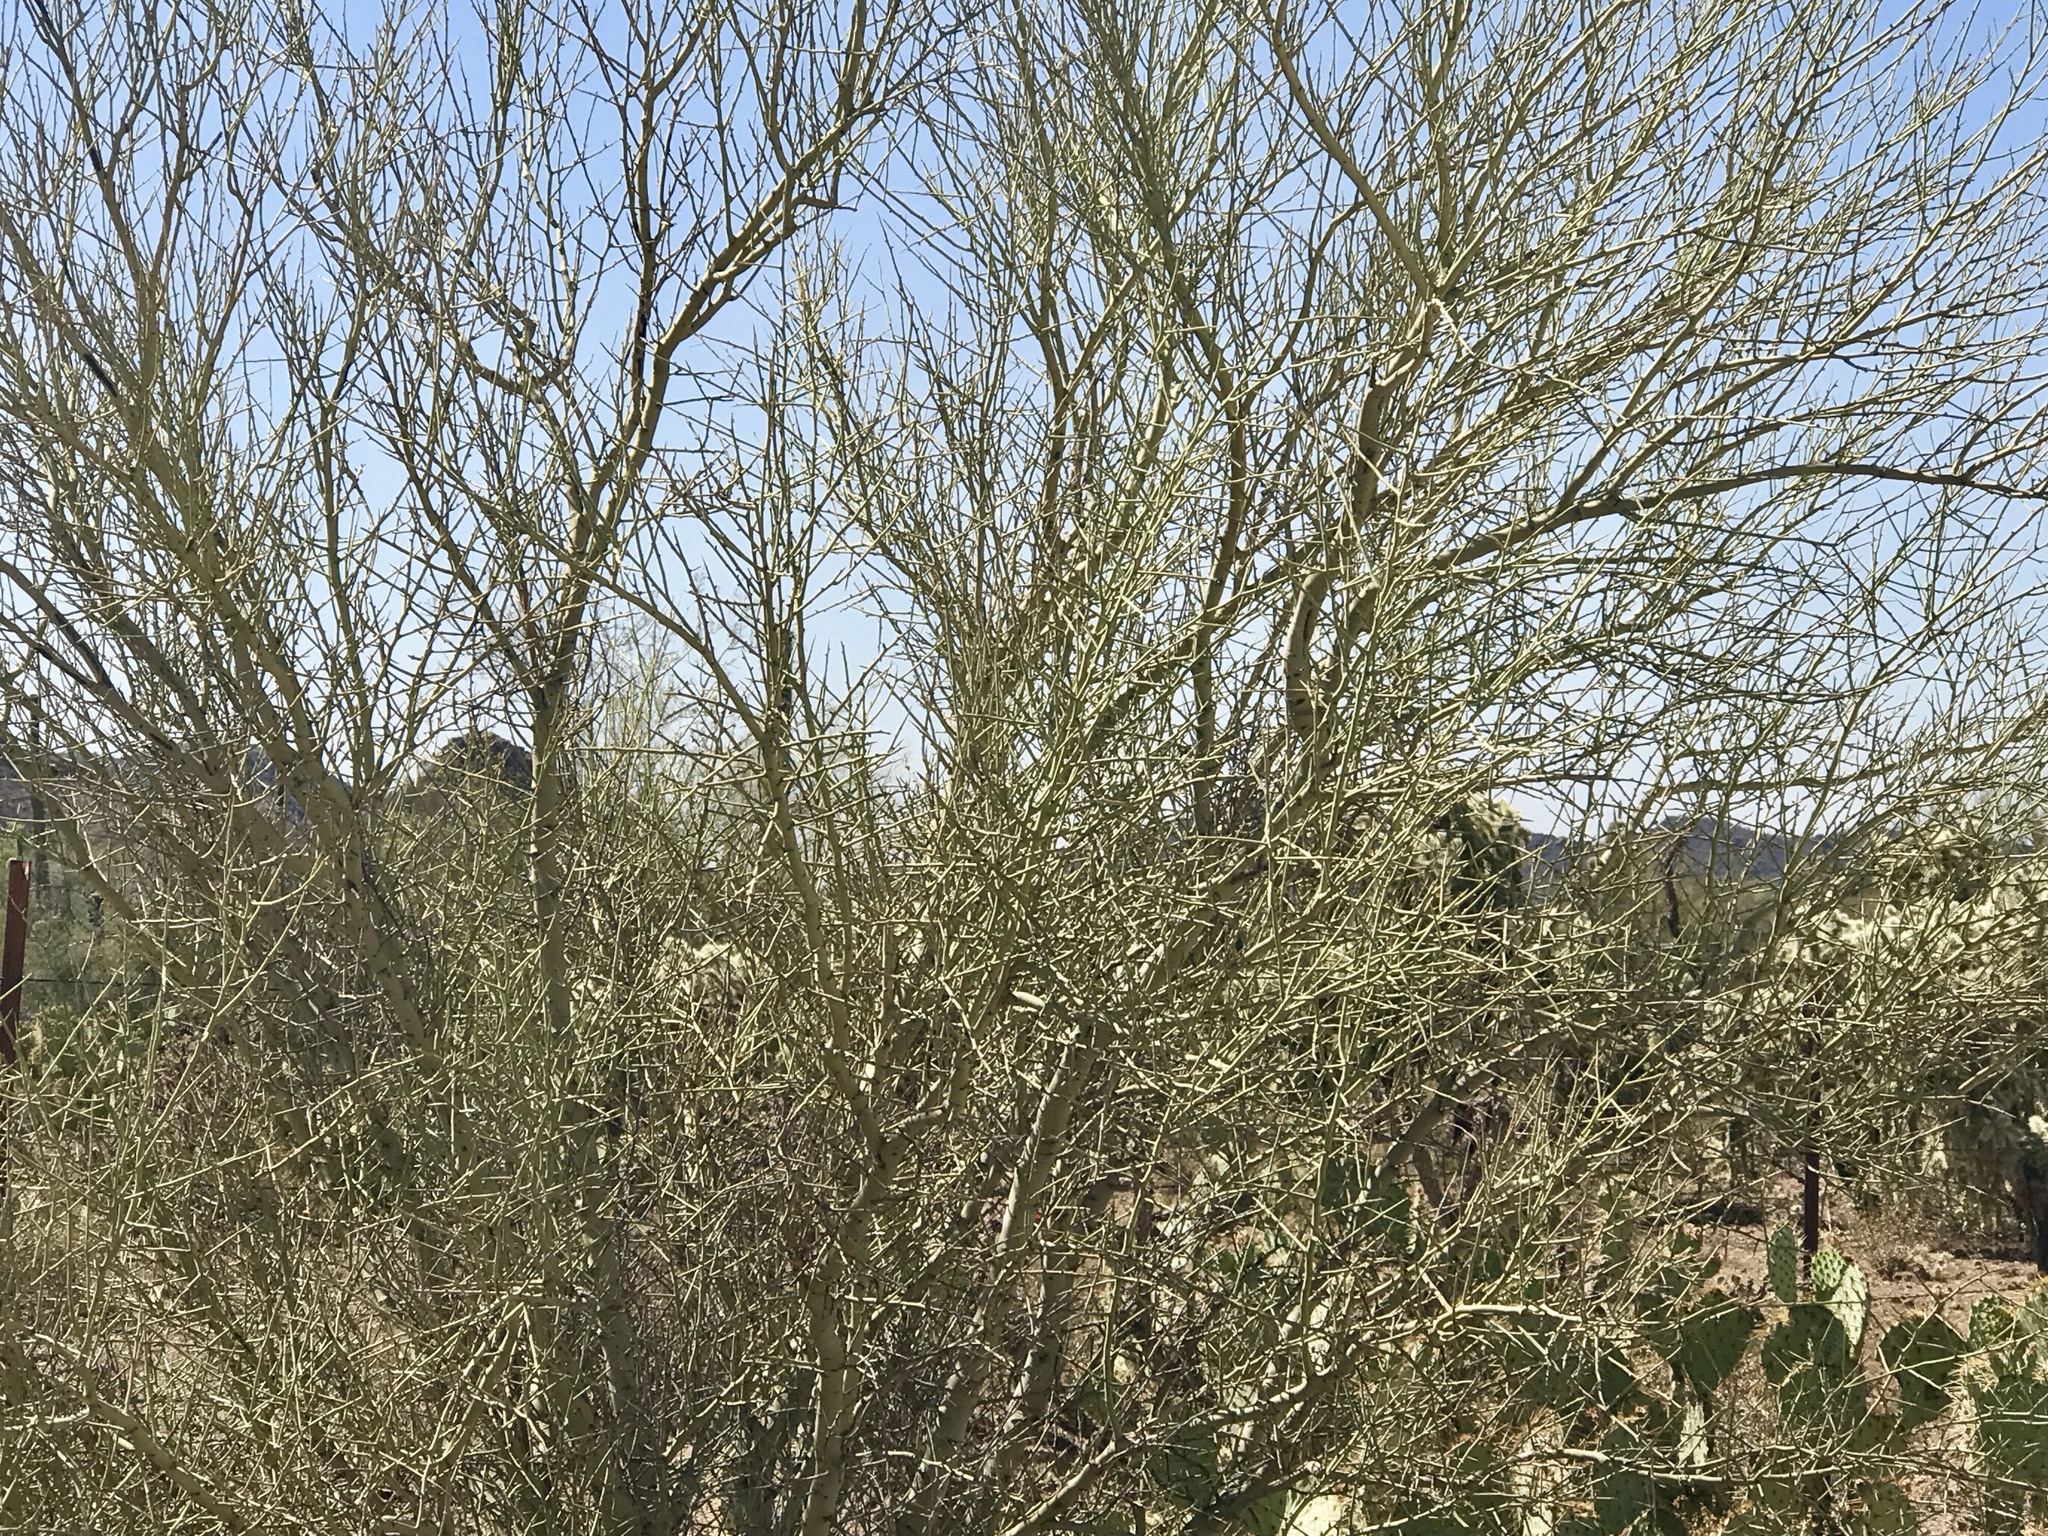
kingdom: Plantae
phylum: Tracheophyta
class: Magnoliopsida
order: Fabales
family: Fabaceae
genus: Parkinsonia
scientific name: Parkinsonia microphylla
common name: Yellow paloverde
